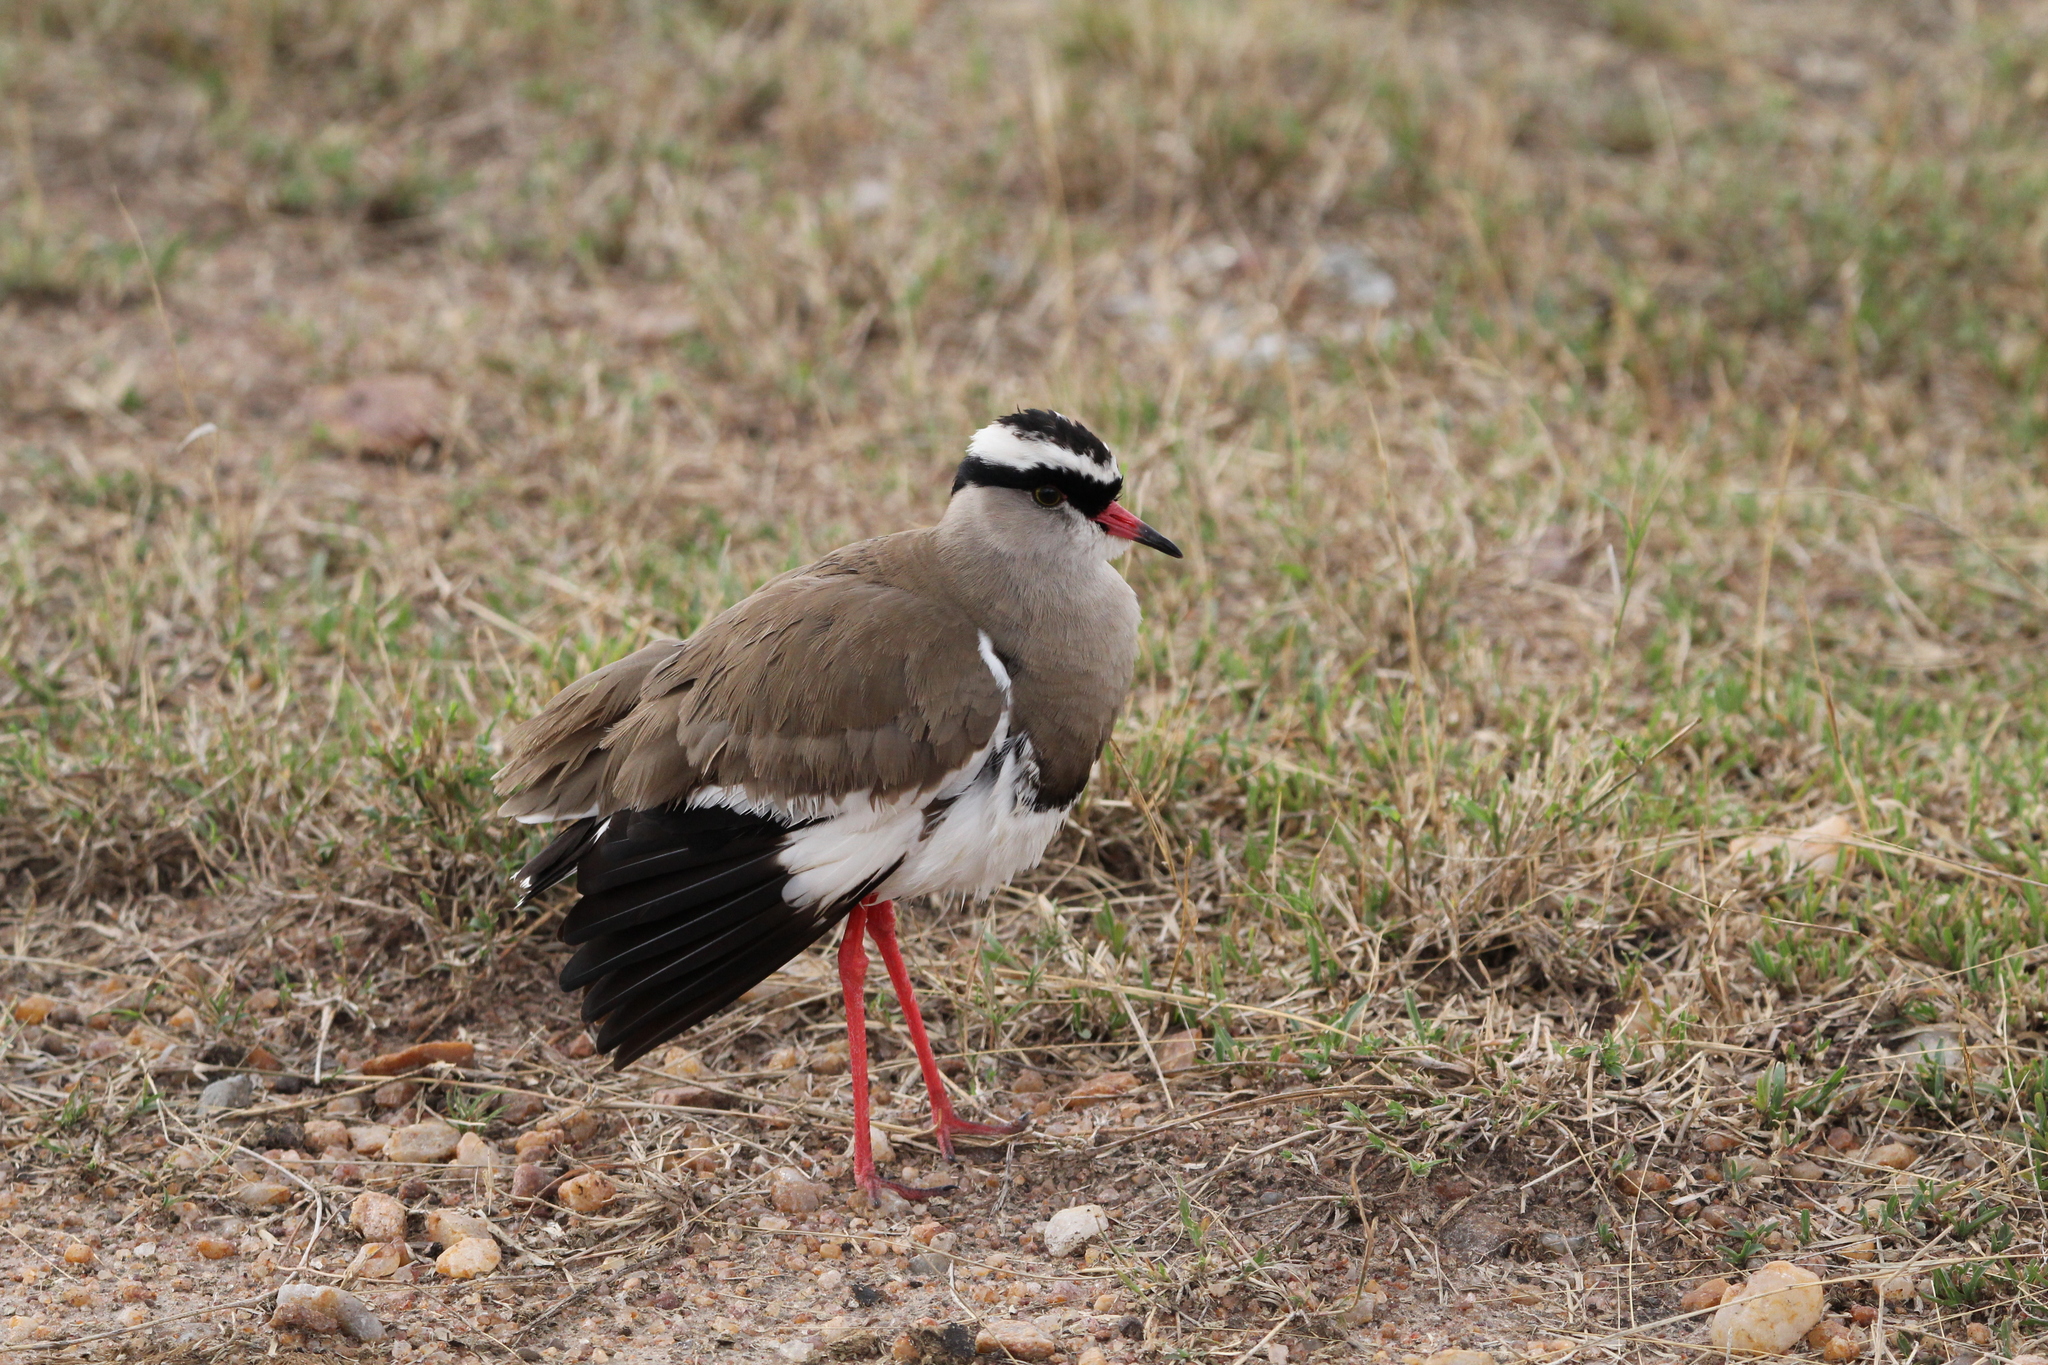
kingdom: Animalia
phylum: Chordata
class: Aves
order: Charadriiformes
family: Charadriidae
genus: Vanellus
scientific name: Vanellus coronatus
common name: Crowned lapwing
